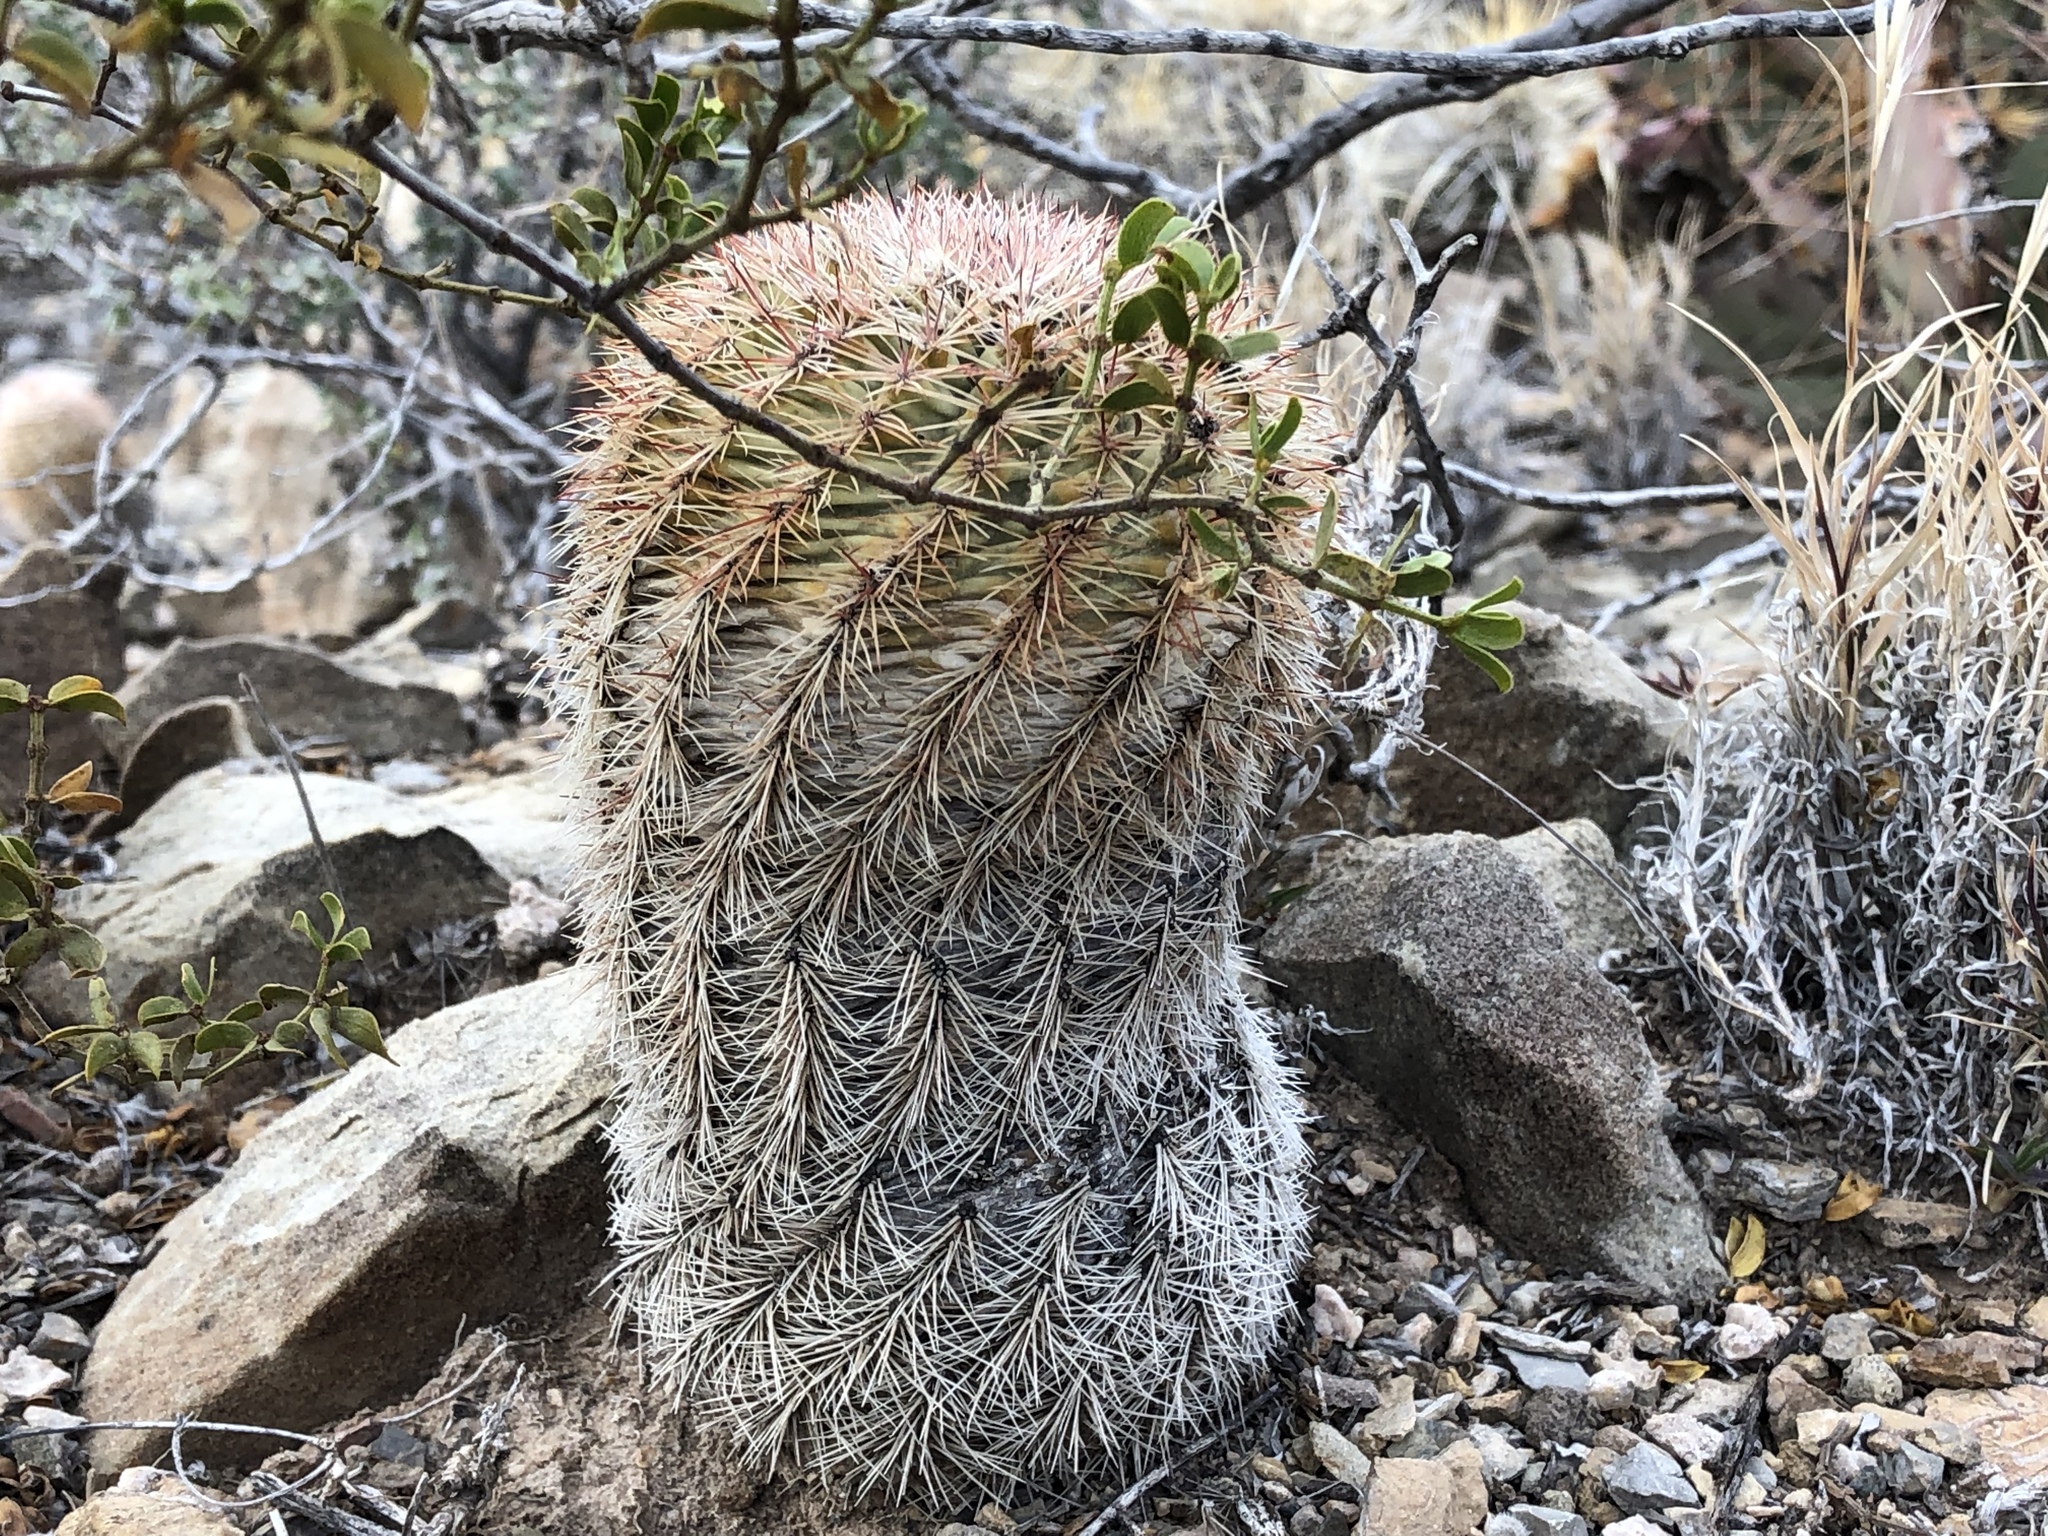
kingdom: Plantae
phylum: Tracheophyta
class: Magnoliopsida
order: Caryophyllales
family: Cactaceae
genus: Echinocereus
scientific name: Echinocereus dasyacanthus
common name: Spiny hedgehog cactus
